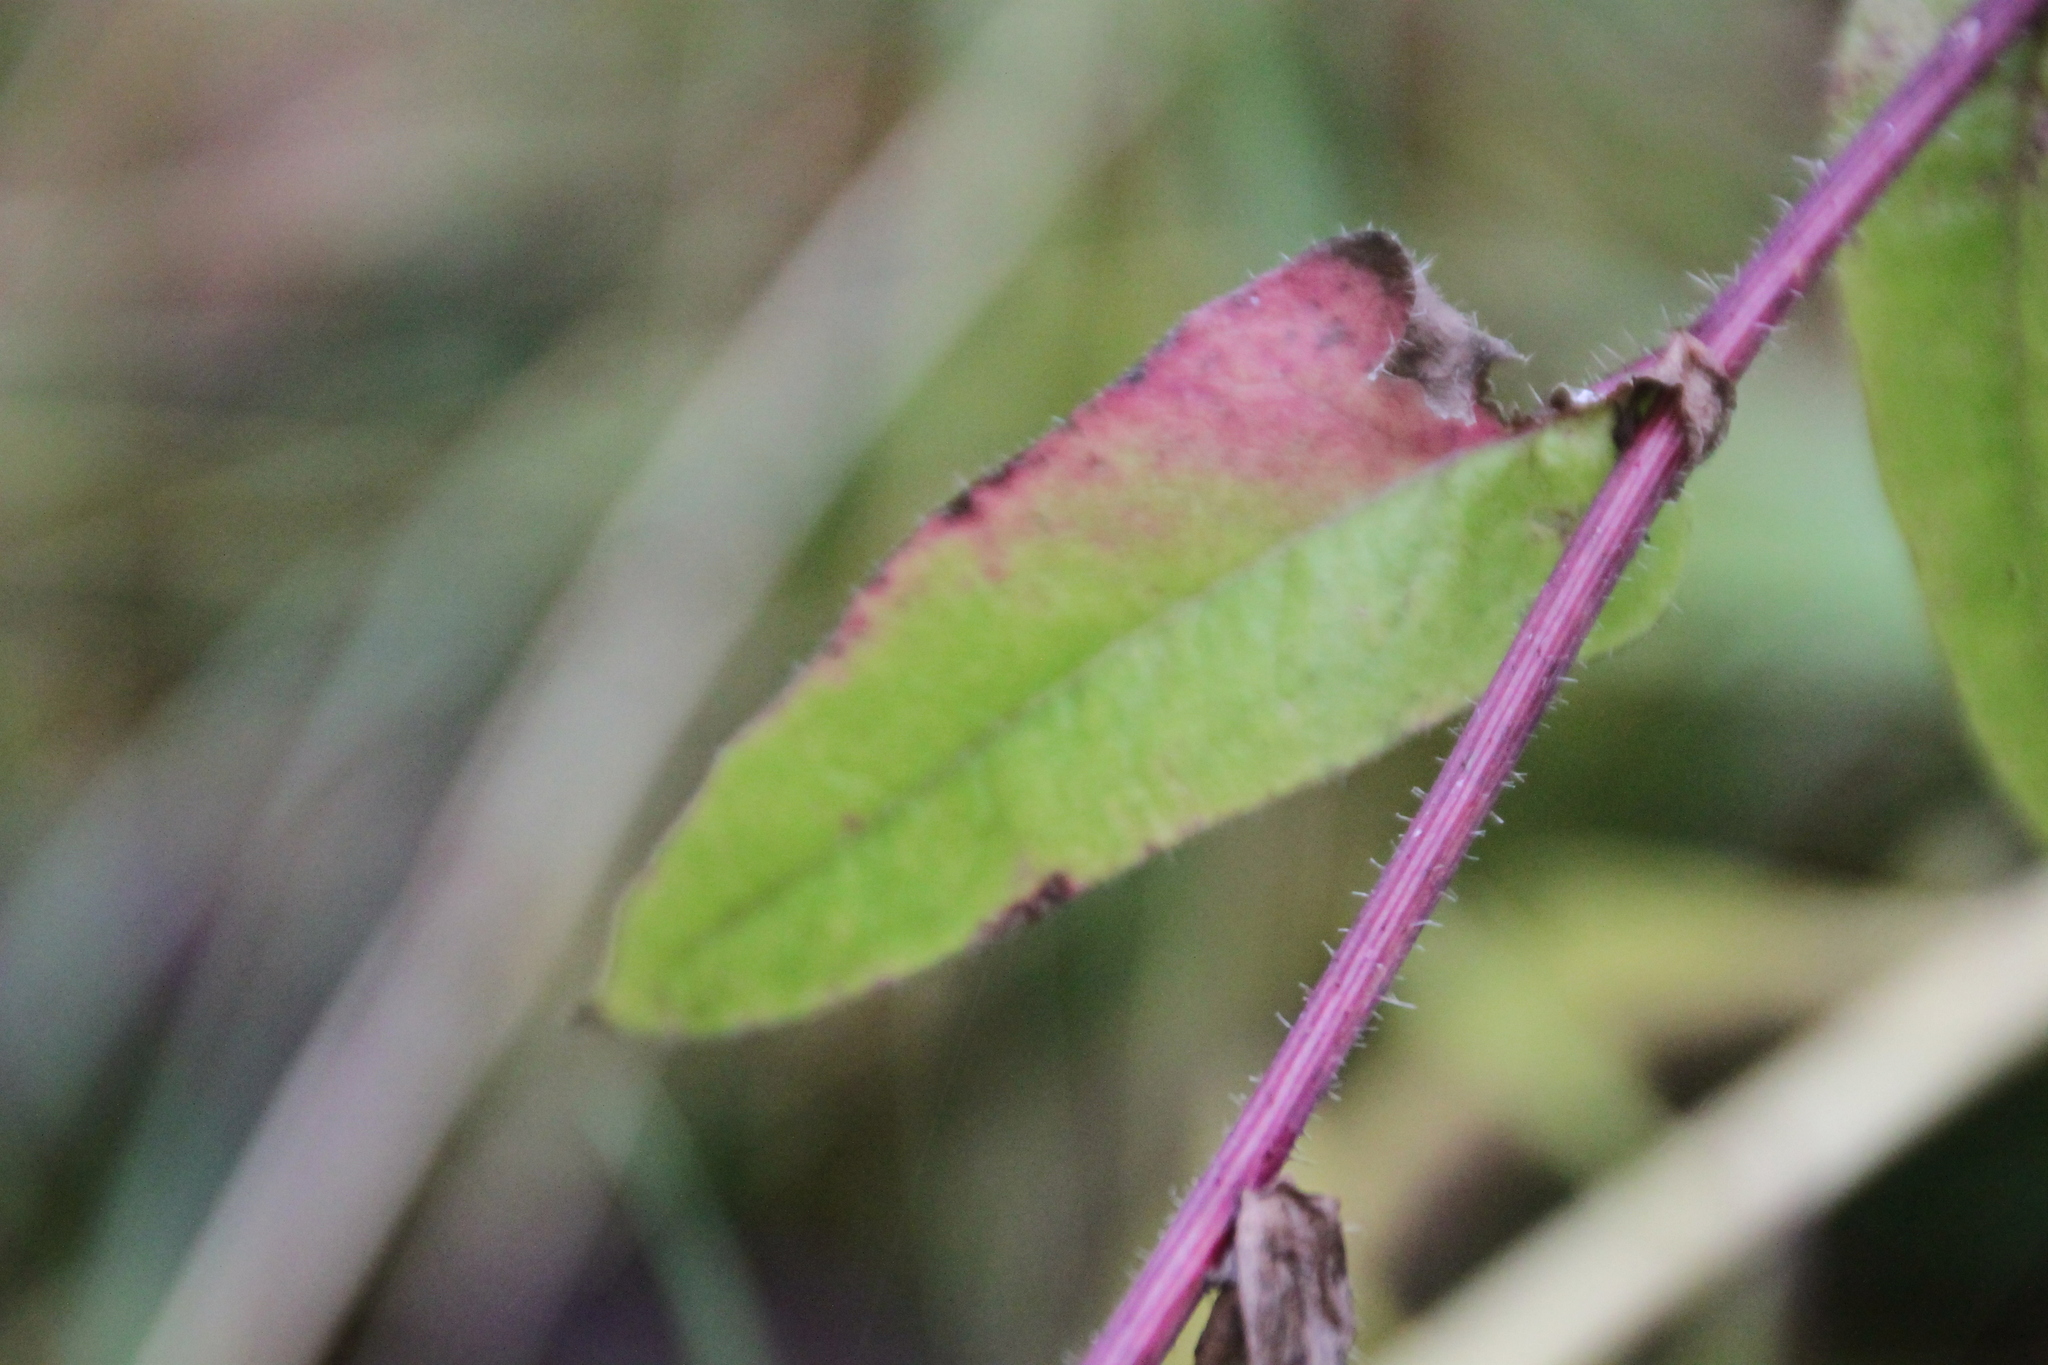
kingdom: Plantae
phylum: Tracheophyta
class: Magnoliopsida
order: Asterales
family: Asteraceae
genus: Picris
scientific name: Picris hieracioides
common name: Hawkweed oxtongue
